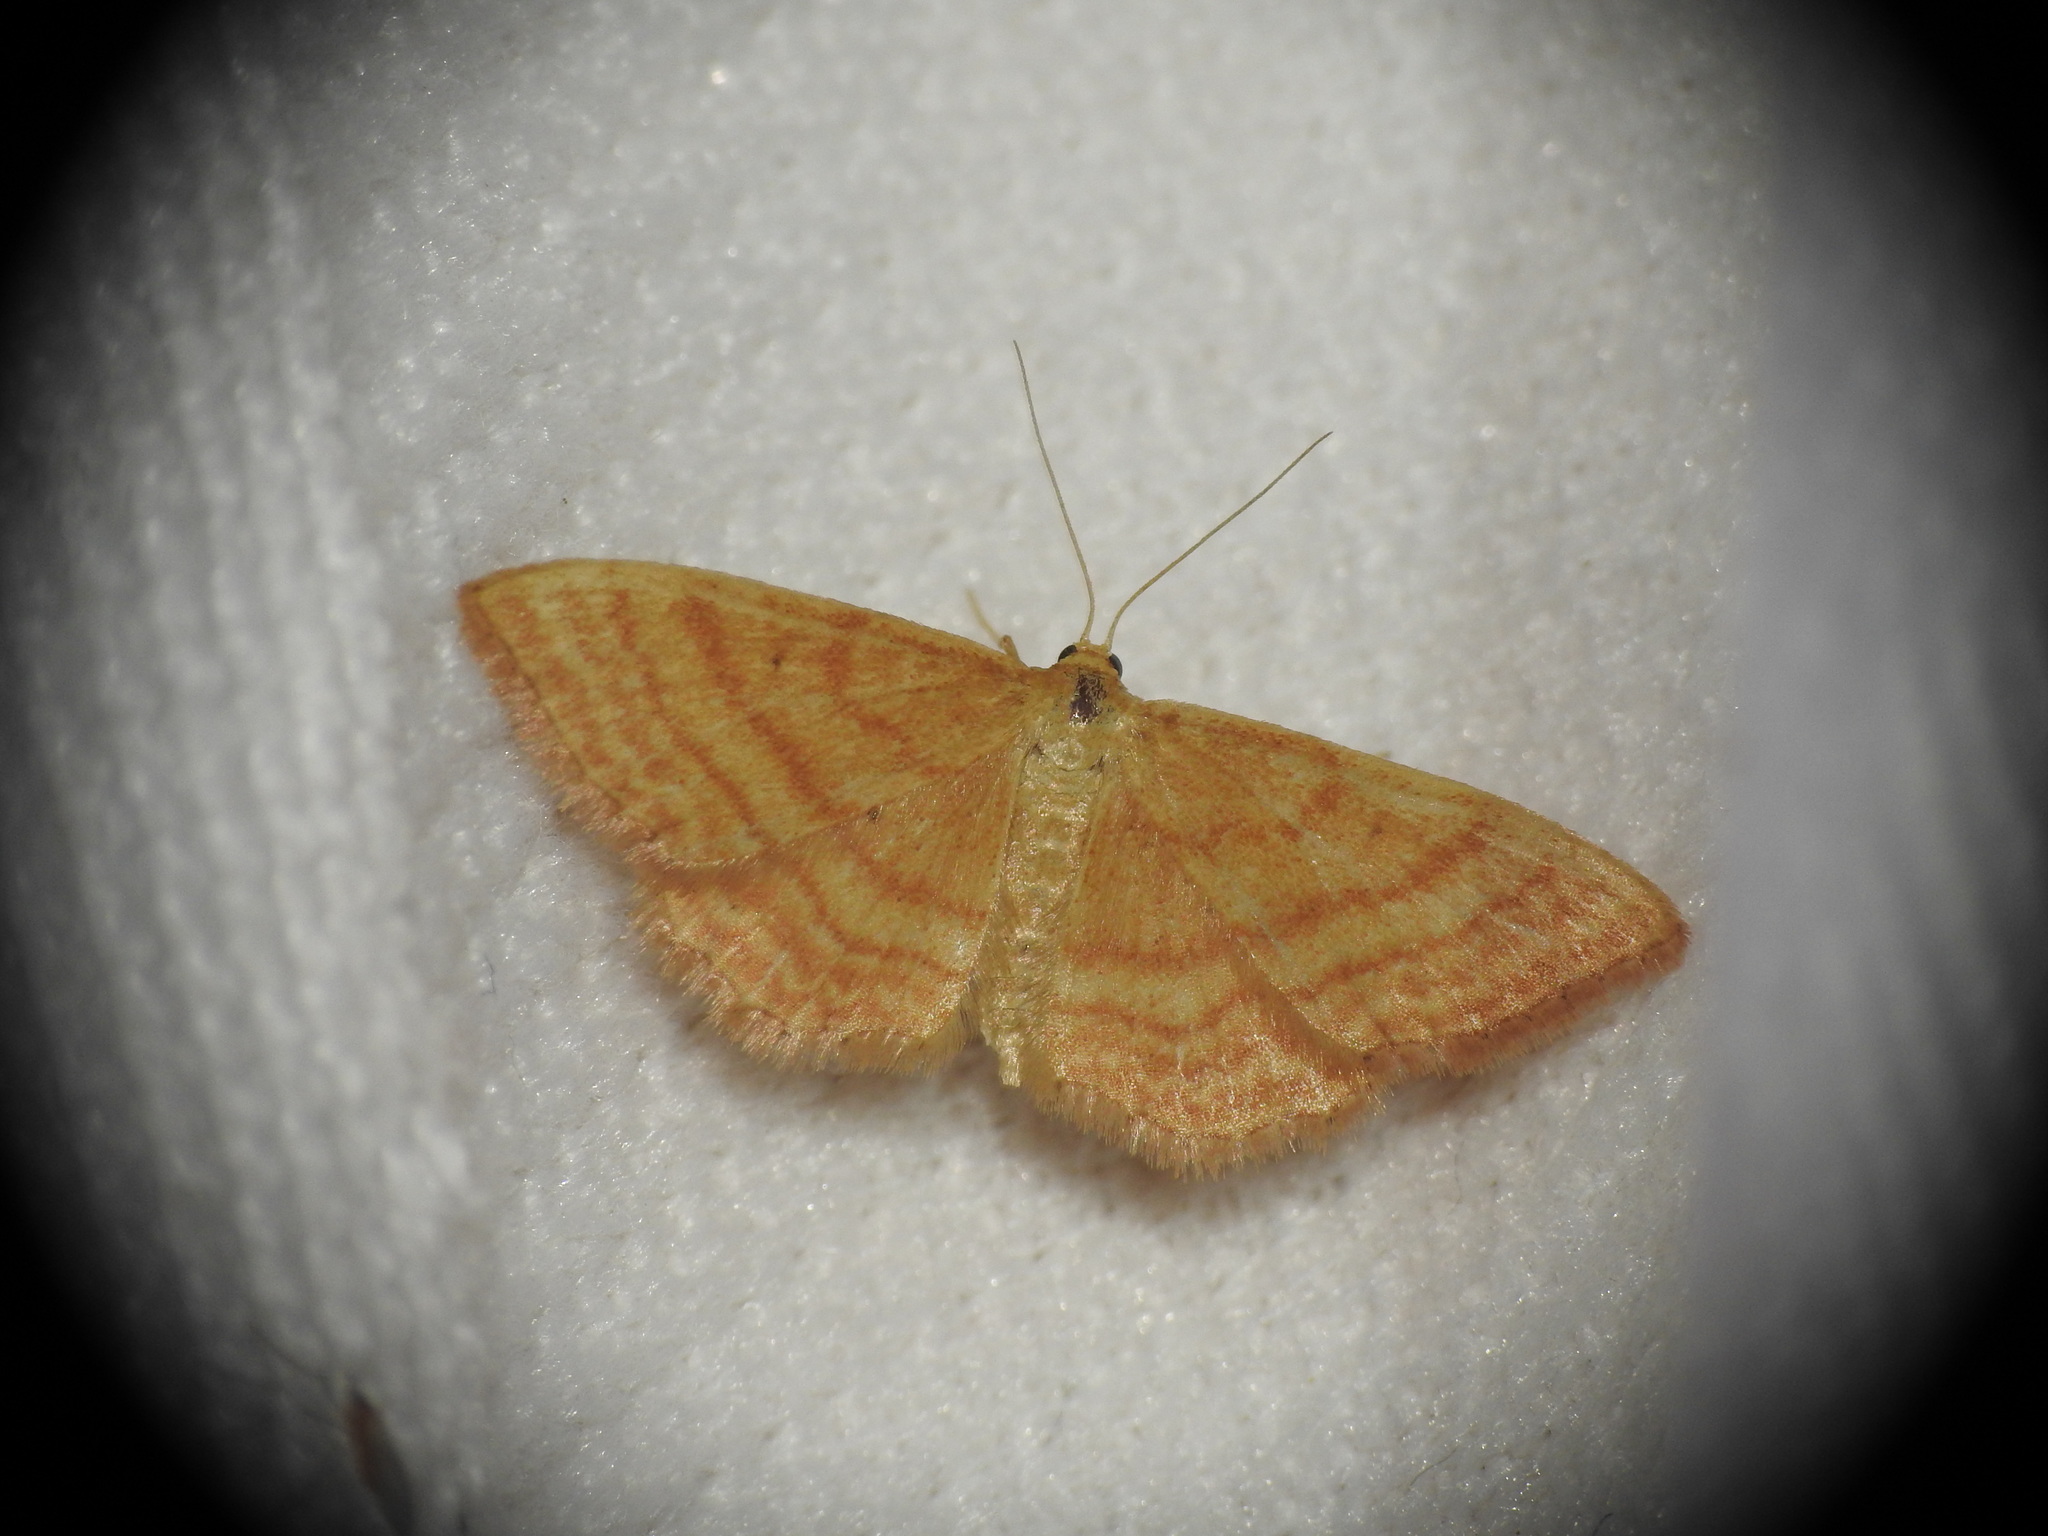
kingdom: Animalia
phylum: Arthropoda
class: Insecta
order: Lepidoptera
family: Geometridae
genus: Idaea
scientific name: Idaea ochrata
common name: Bright wave
